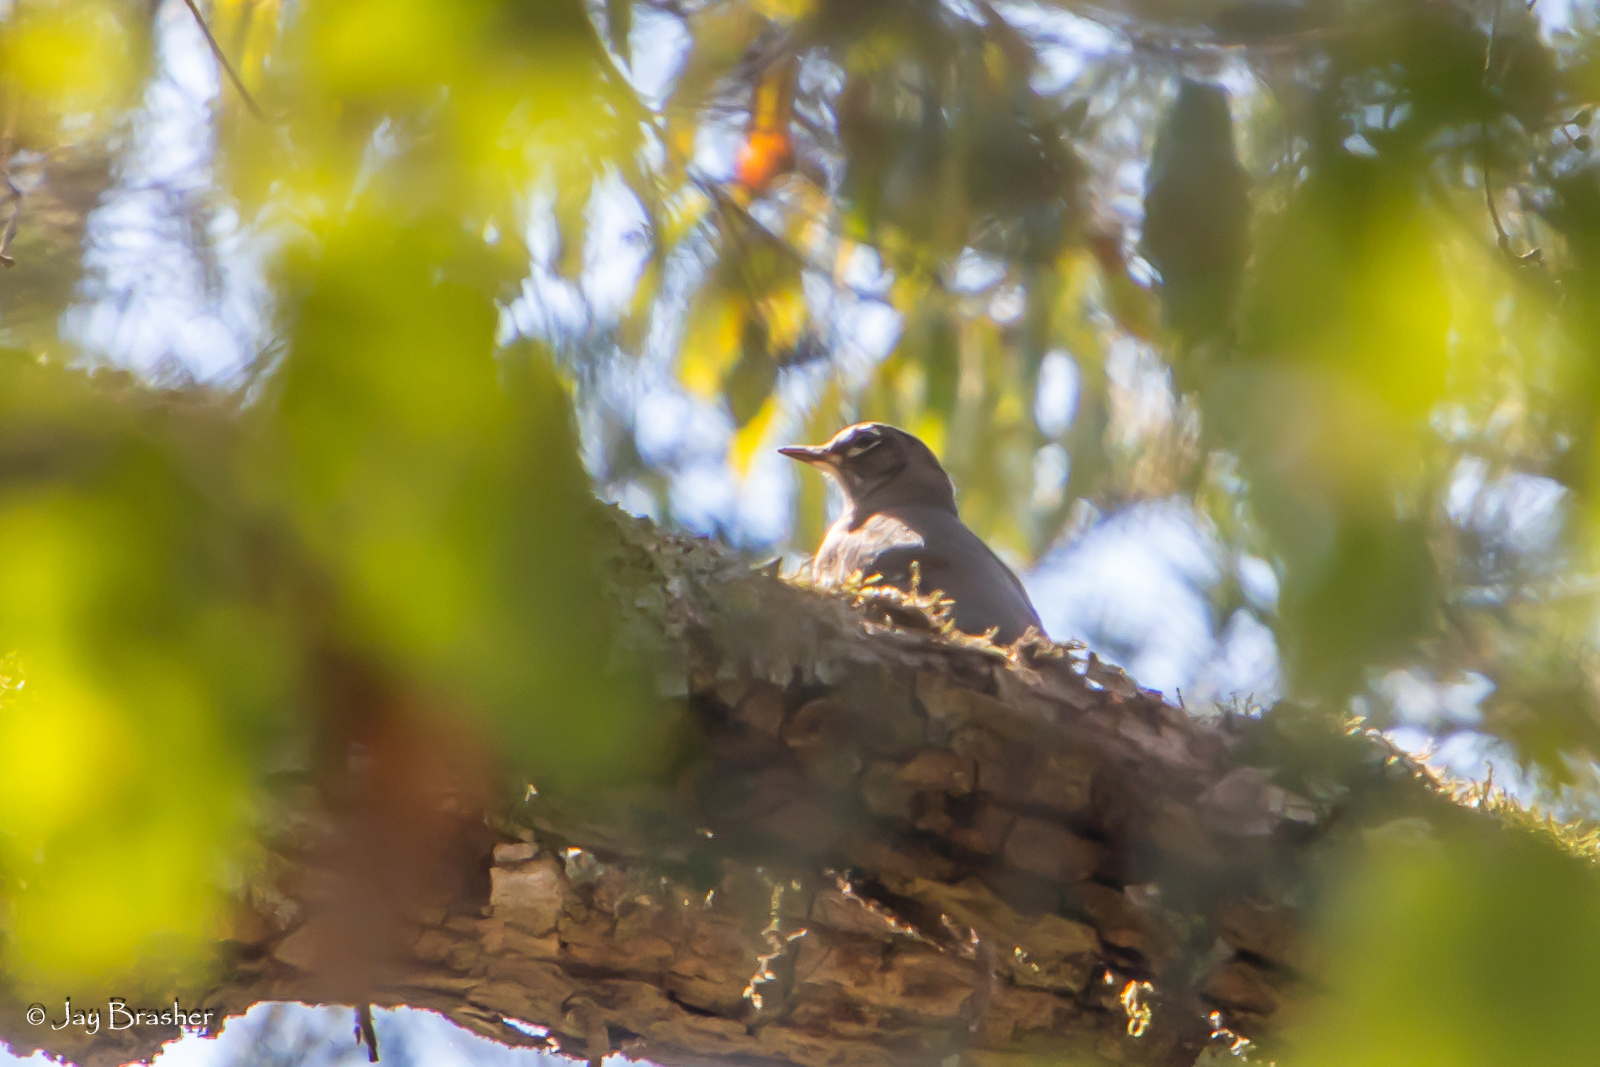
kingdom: Animalia
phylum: Chordata
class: Aves
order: Passeriformes
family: Turdidae
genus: Turdus
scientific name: Turdus migratorius
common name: American robin
